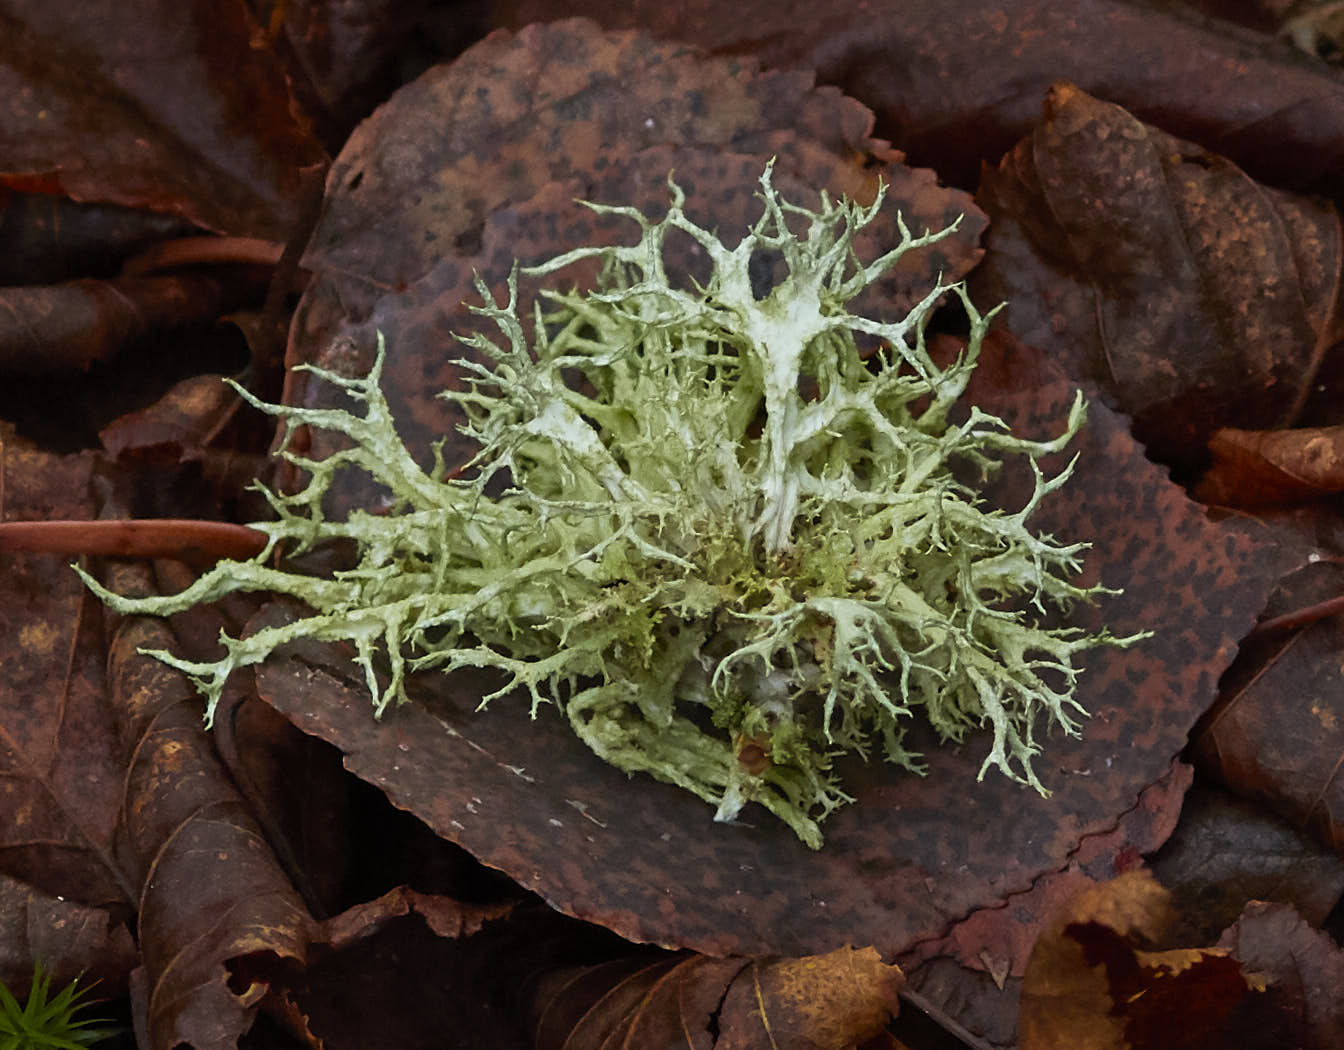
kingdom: Fungi
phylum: Ascomycota
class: Lecanoromycetes
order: Lecanorales
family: Parmeliaceae
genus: Evernia
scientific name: Evernia mesomorpha
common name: Boreal oak moss lichen
